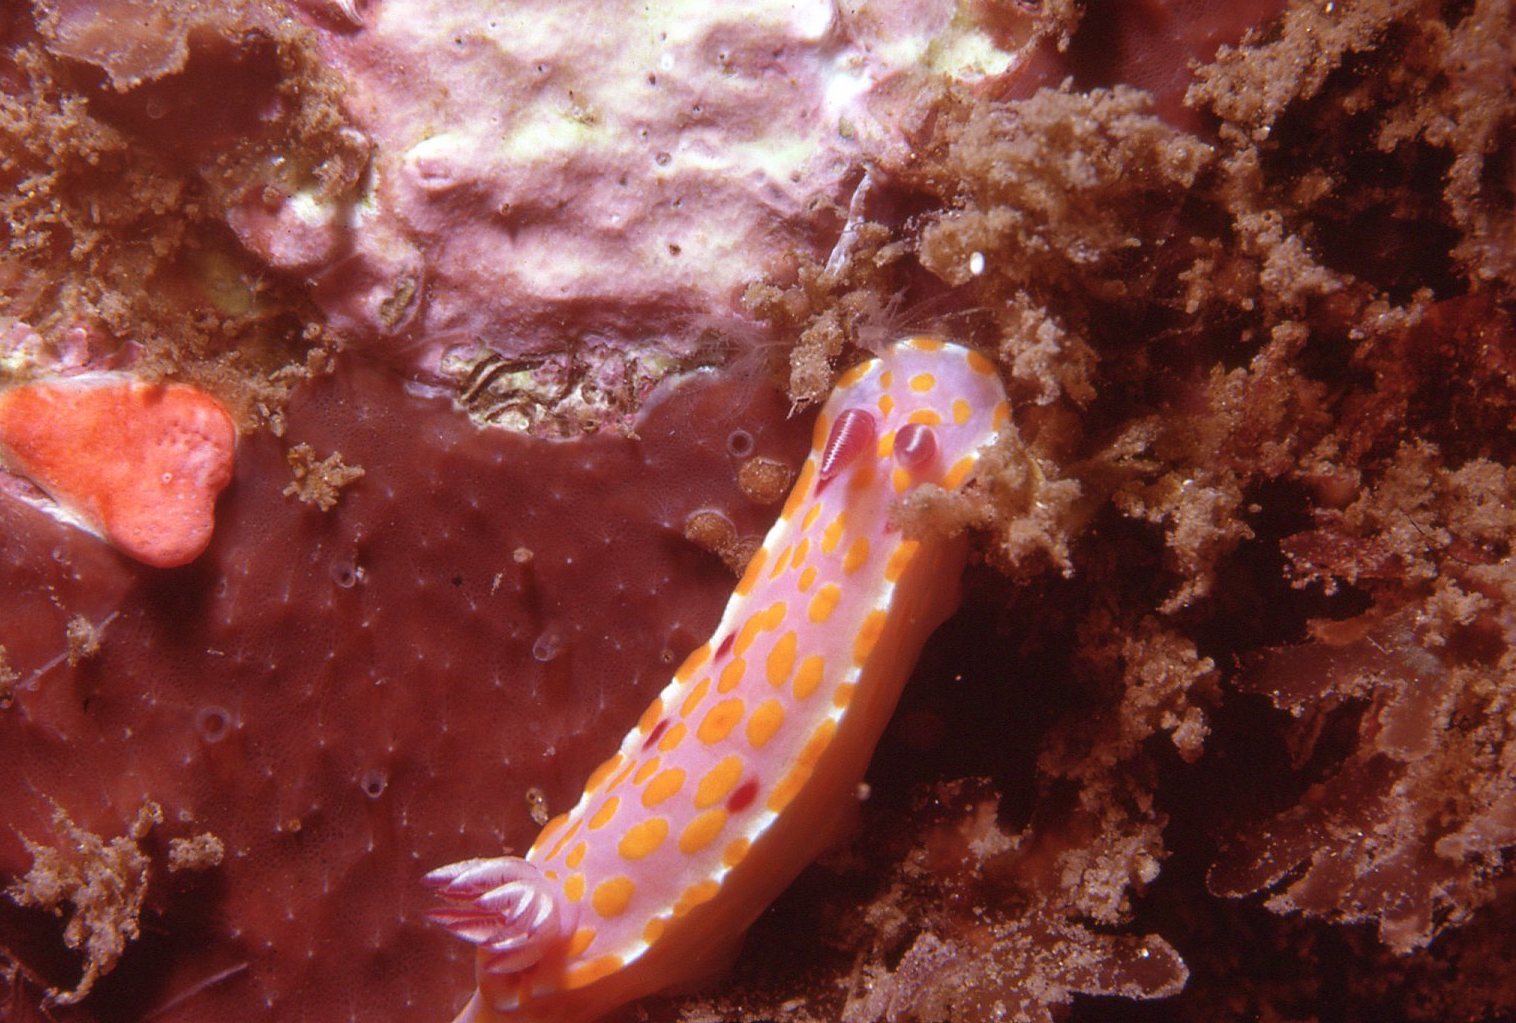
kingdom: Animalia
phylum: Mollusca
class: Gastropoda
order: Nudibranchia
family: Chromodorididae
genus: Ceratosoma
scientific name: Ceratosoma amoenum
